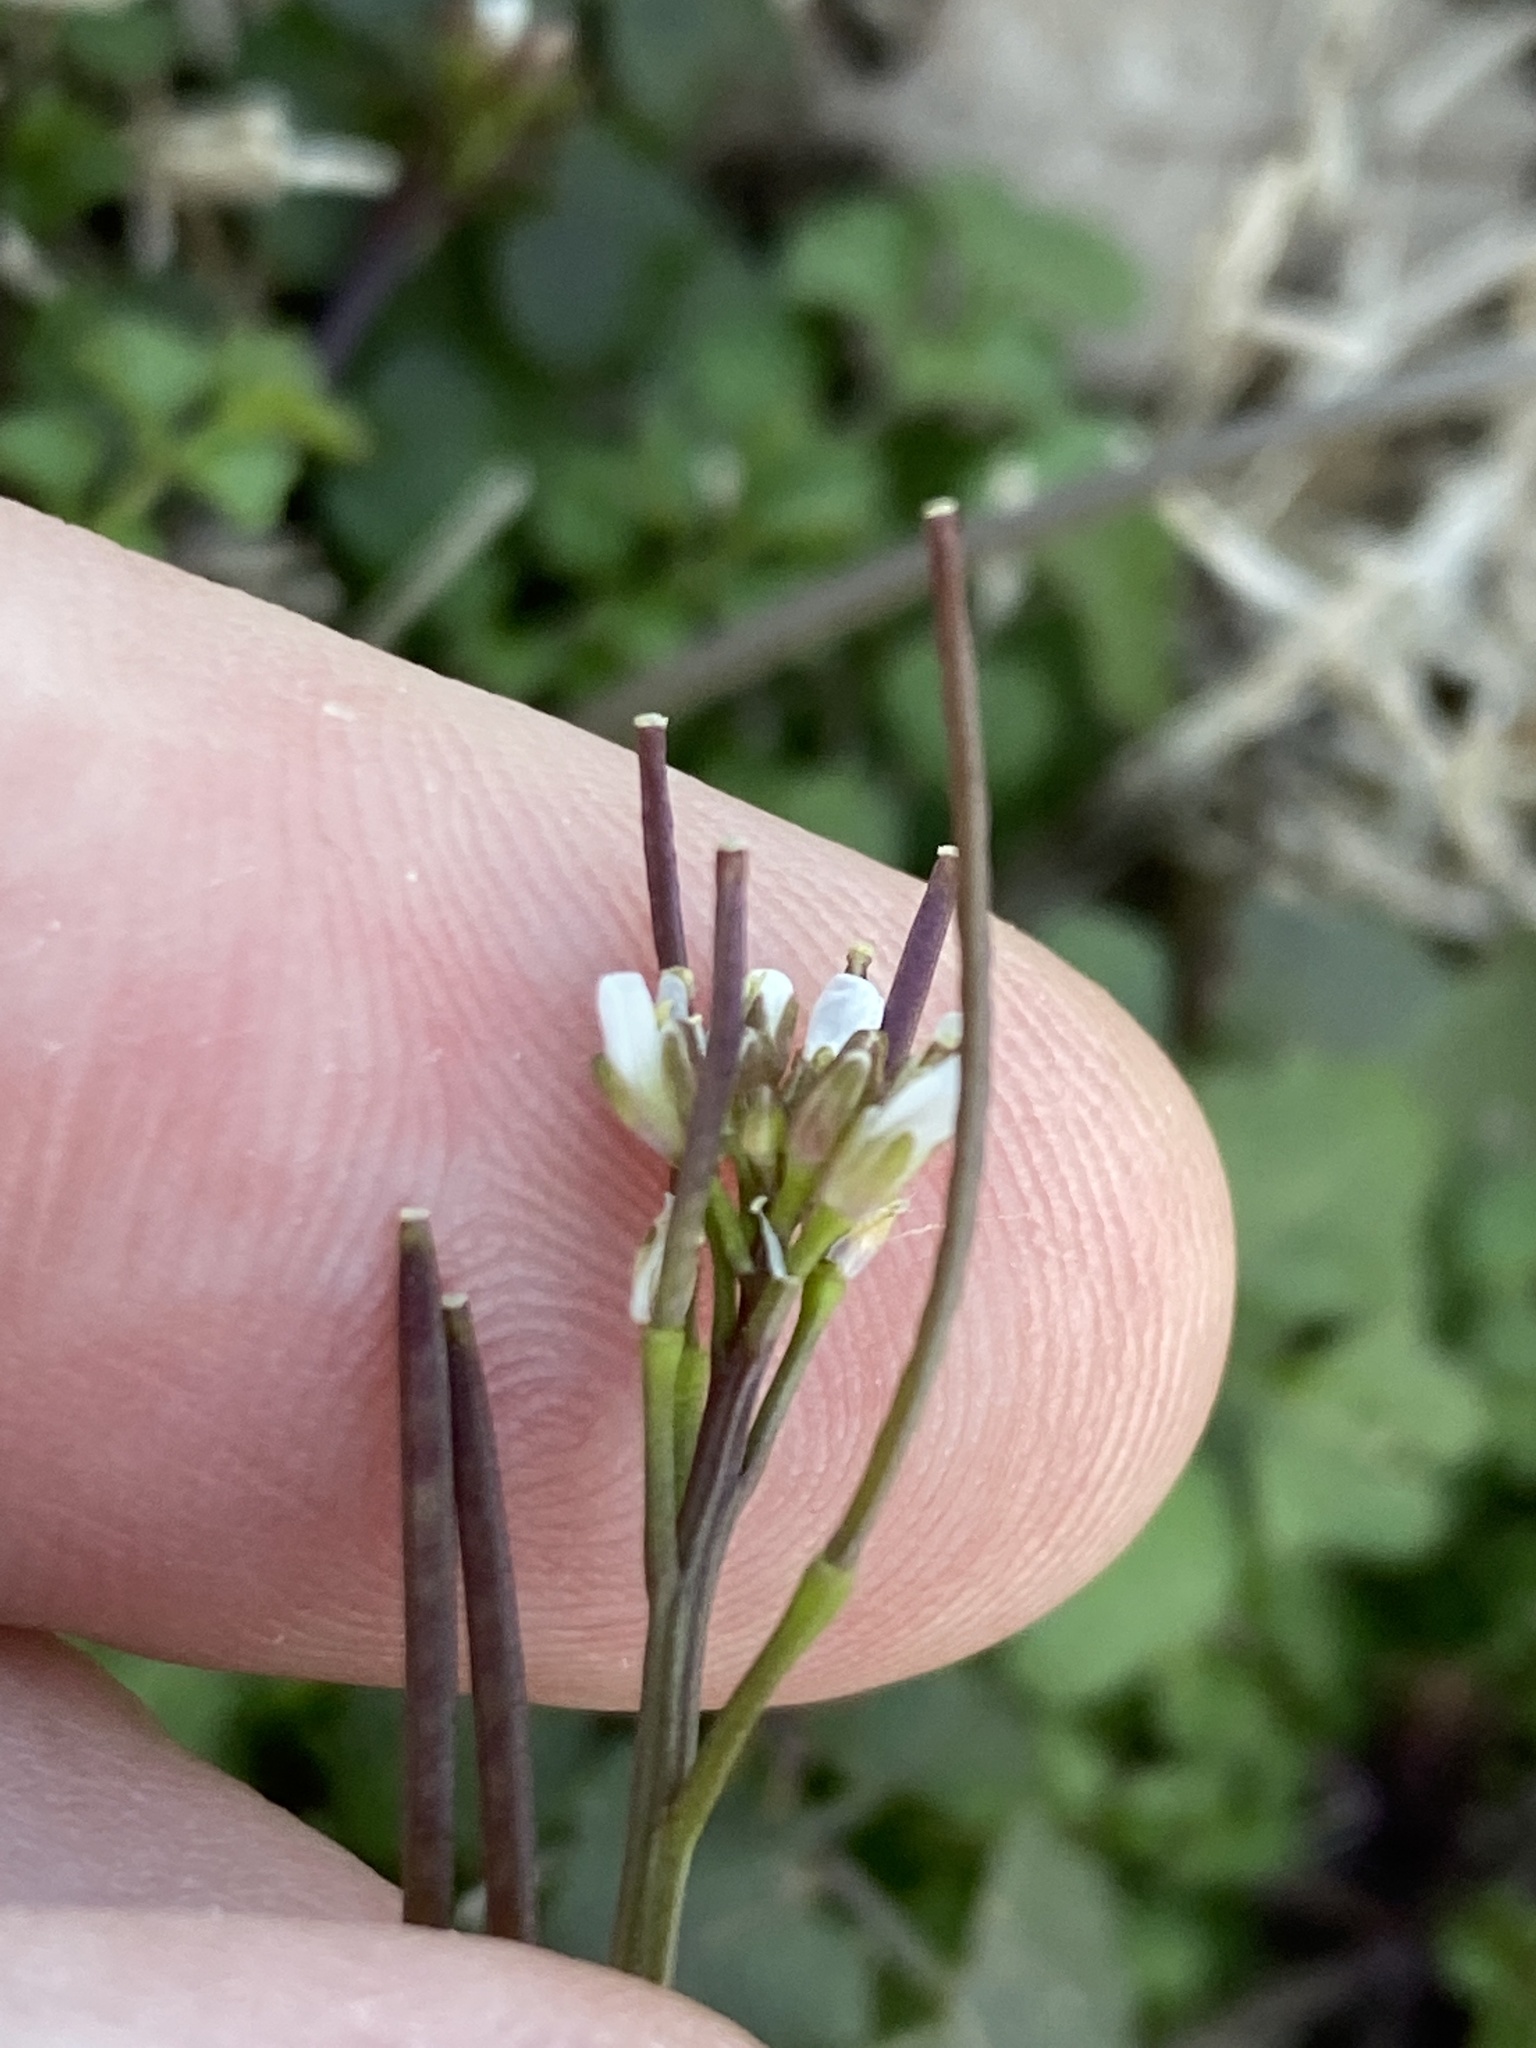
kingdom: Plantae
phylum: Tracheophyta
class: Magnoliopsida
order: Brassicales
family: Brassicaceae
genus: Cardamine
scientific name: Cardamine hirsuta
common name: Hairy bittercress
